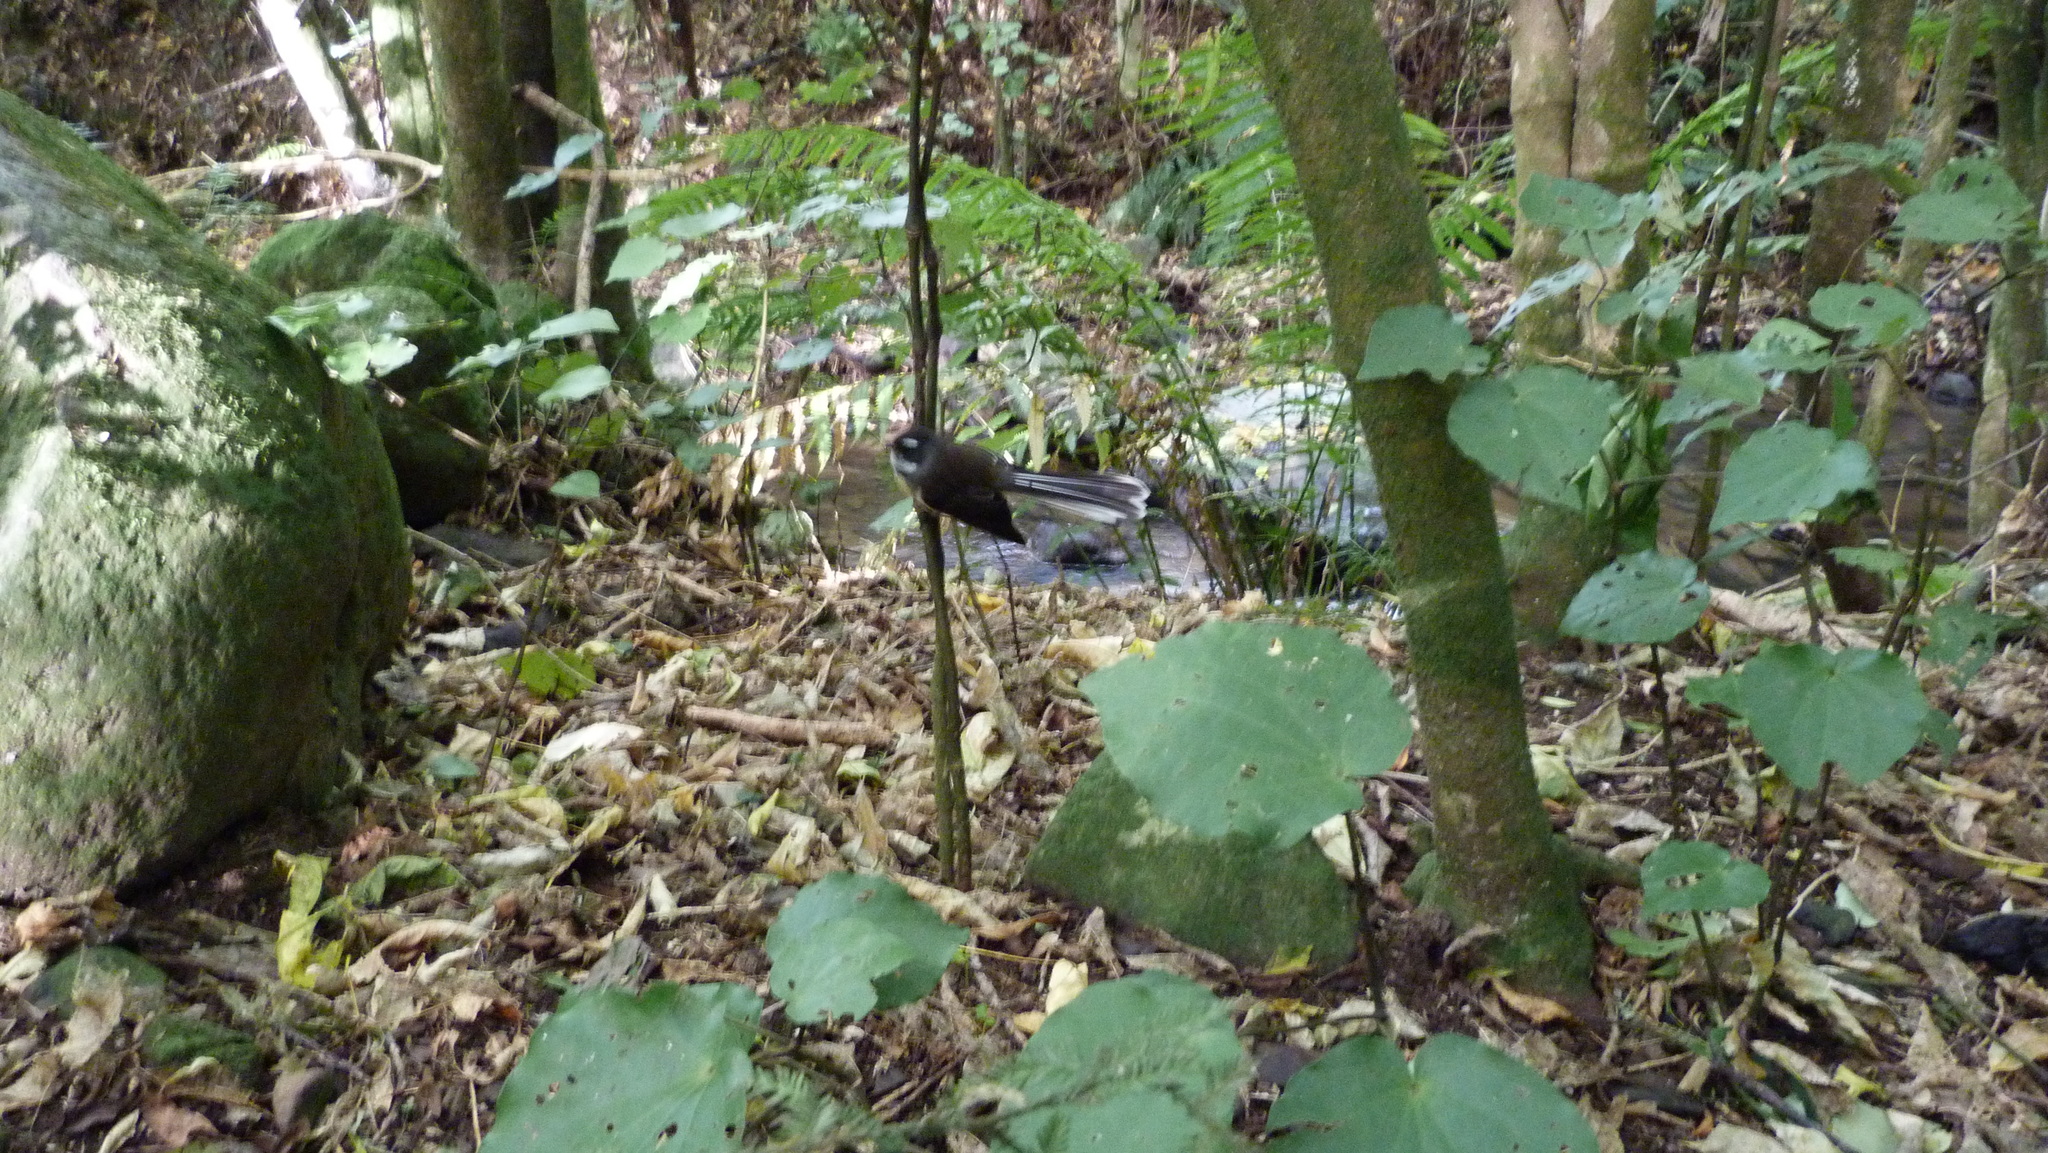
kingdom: Animalia
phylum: Chordata
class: Aves
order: Passeriformes
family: Rhipiduridae
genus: Rhipidura
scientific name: Rhipidura fuliginosa
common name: New zealand fantail
